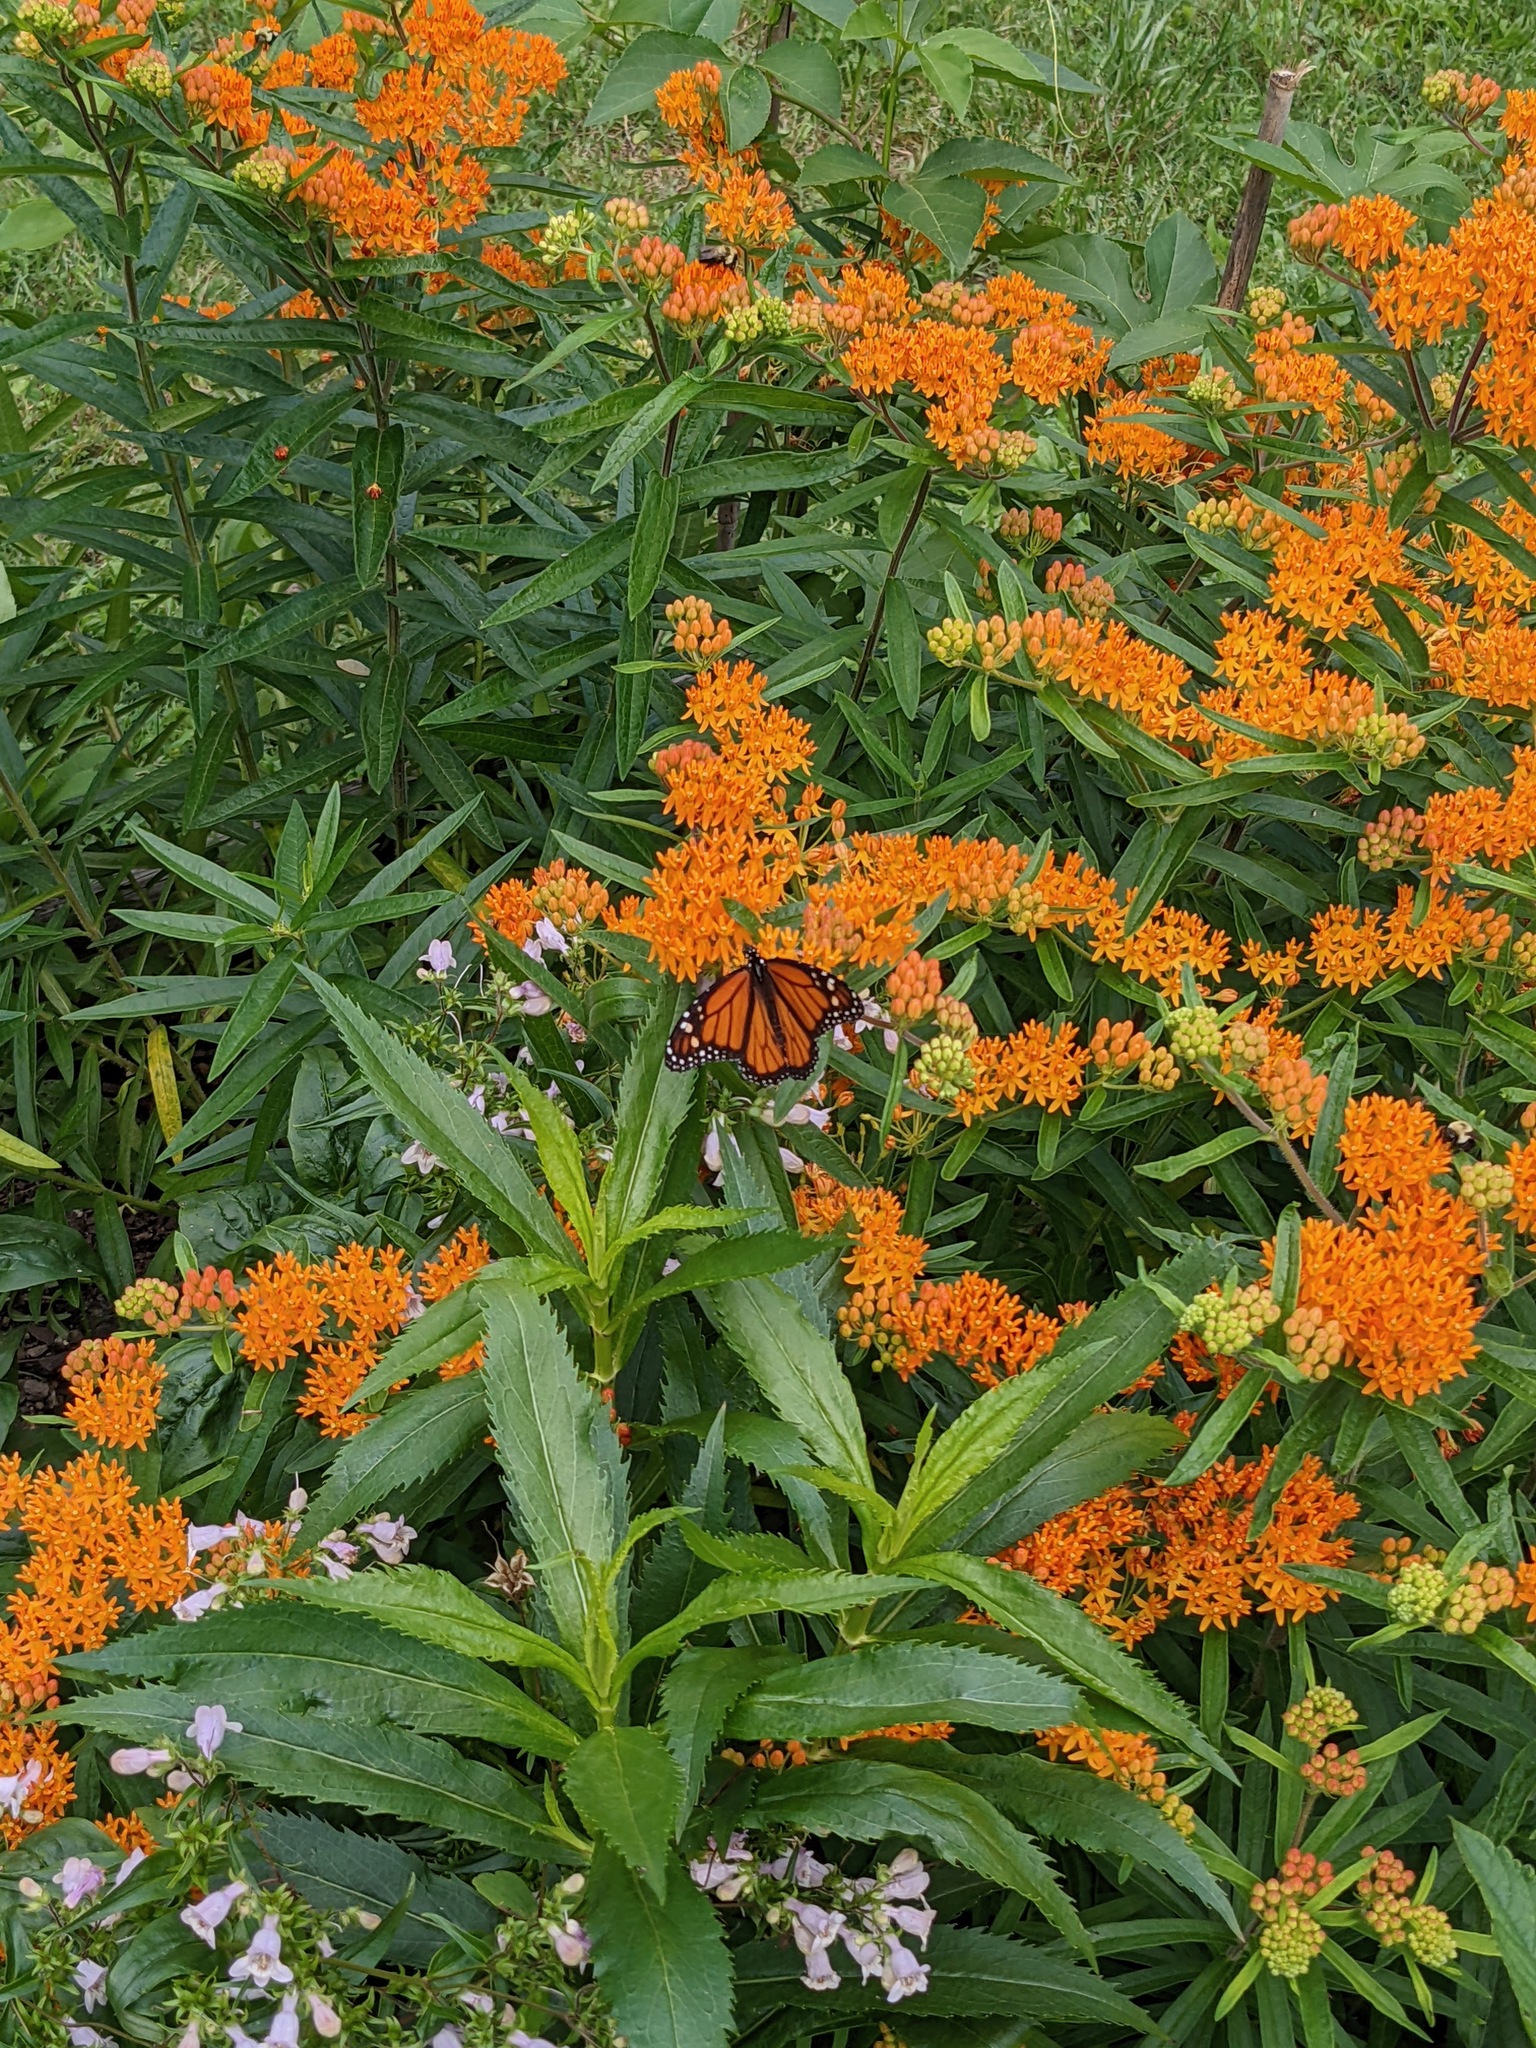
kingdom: Animalia
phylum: Arthropoda
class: Insecta
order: Lepidoptera
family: Nymphalidae
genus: Danaus
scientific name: Danaus plexippus
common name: Monarch
